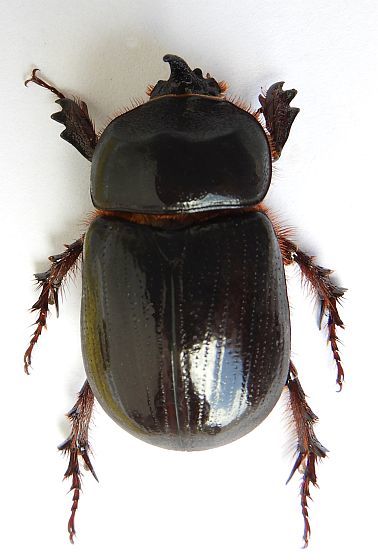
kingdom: Animalia
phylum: Arthropoda
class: Insecta
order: Coleoptera
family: Scarabaeidae
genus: Xyloryctes
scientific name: Xyloryctes thestalus
